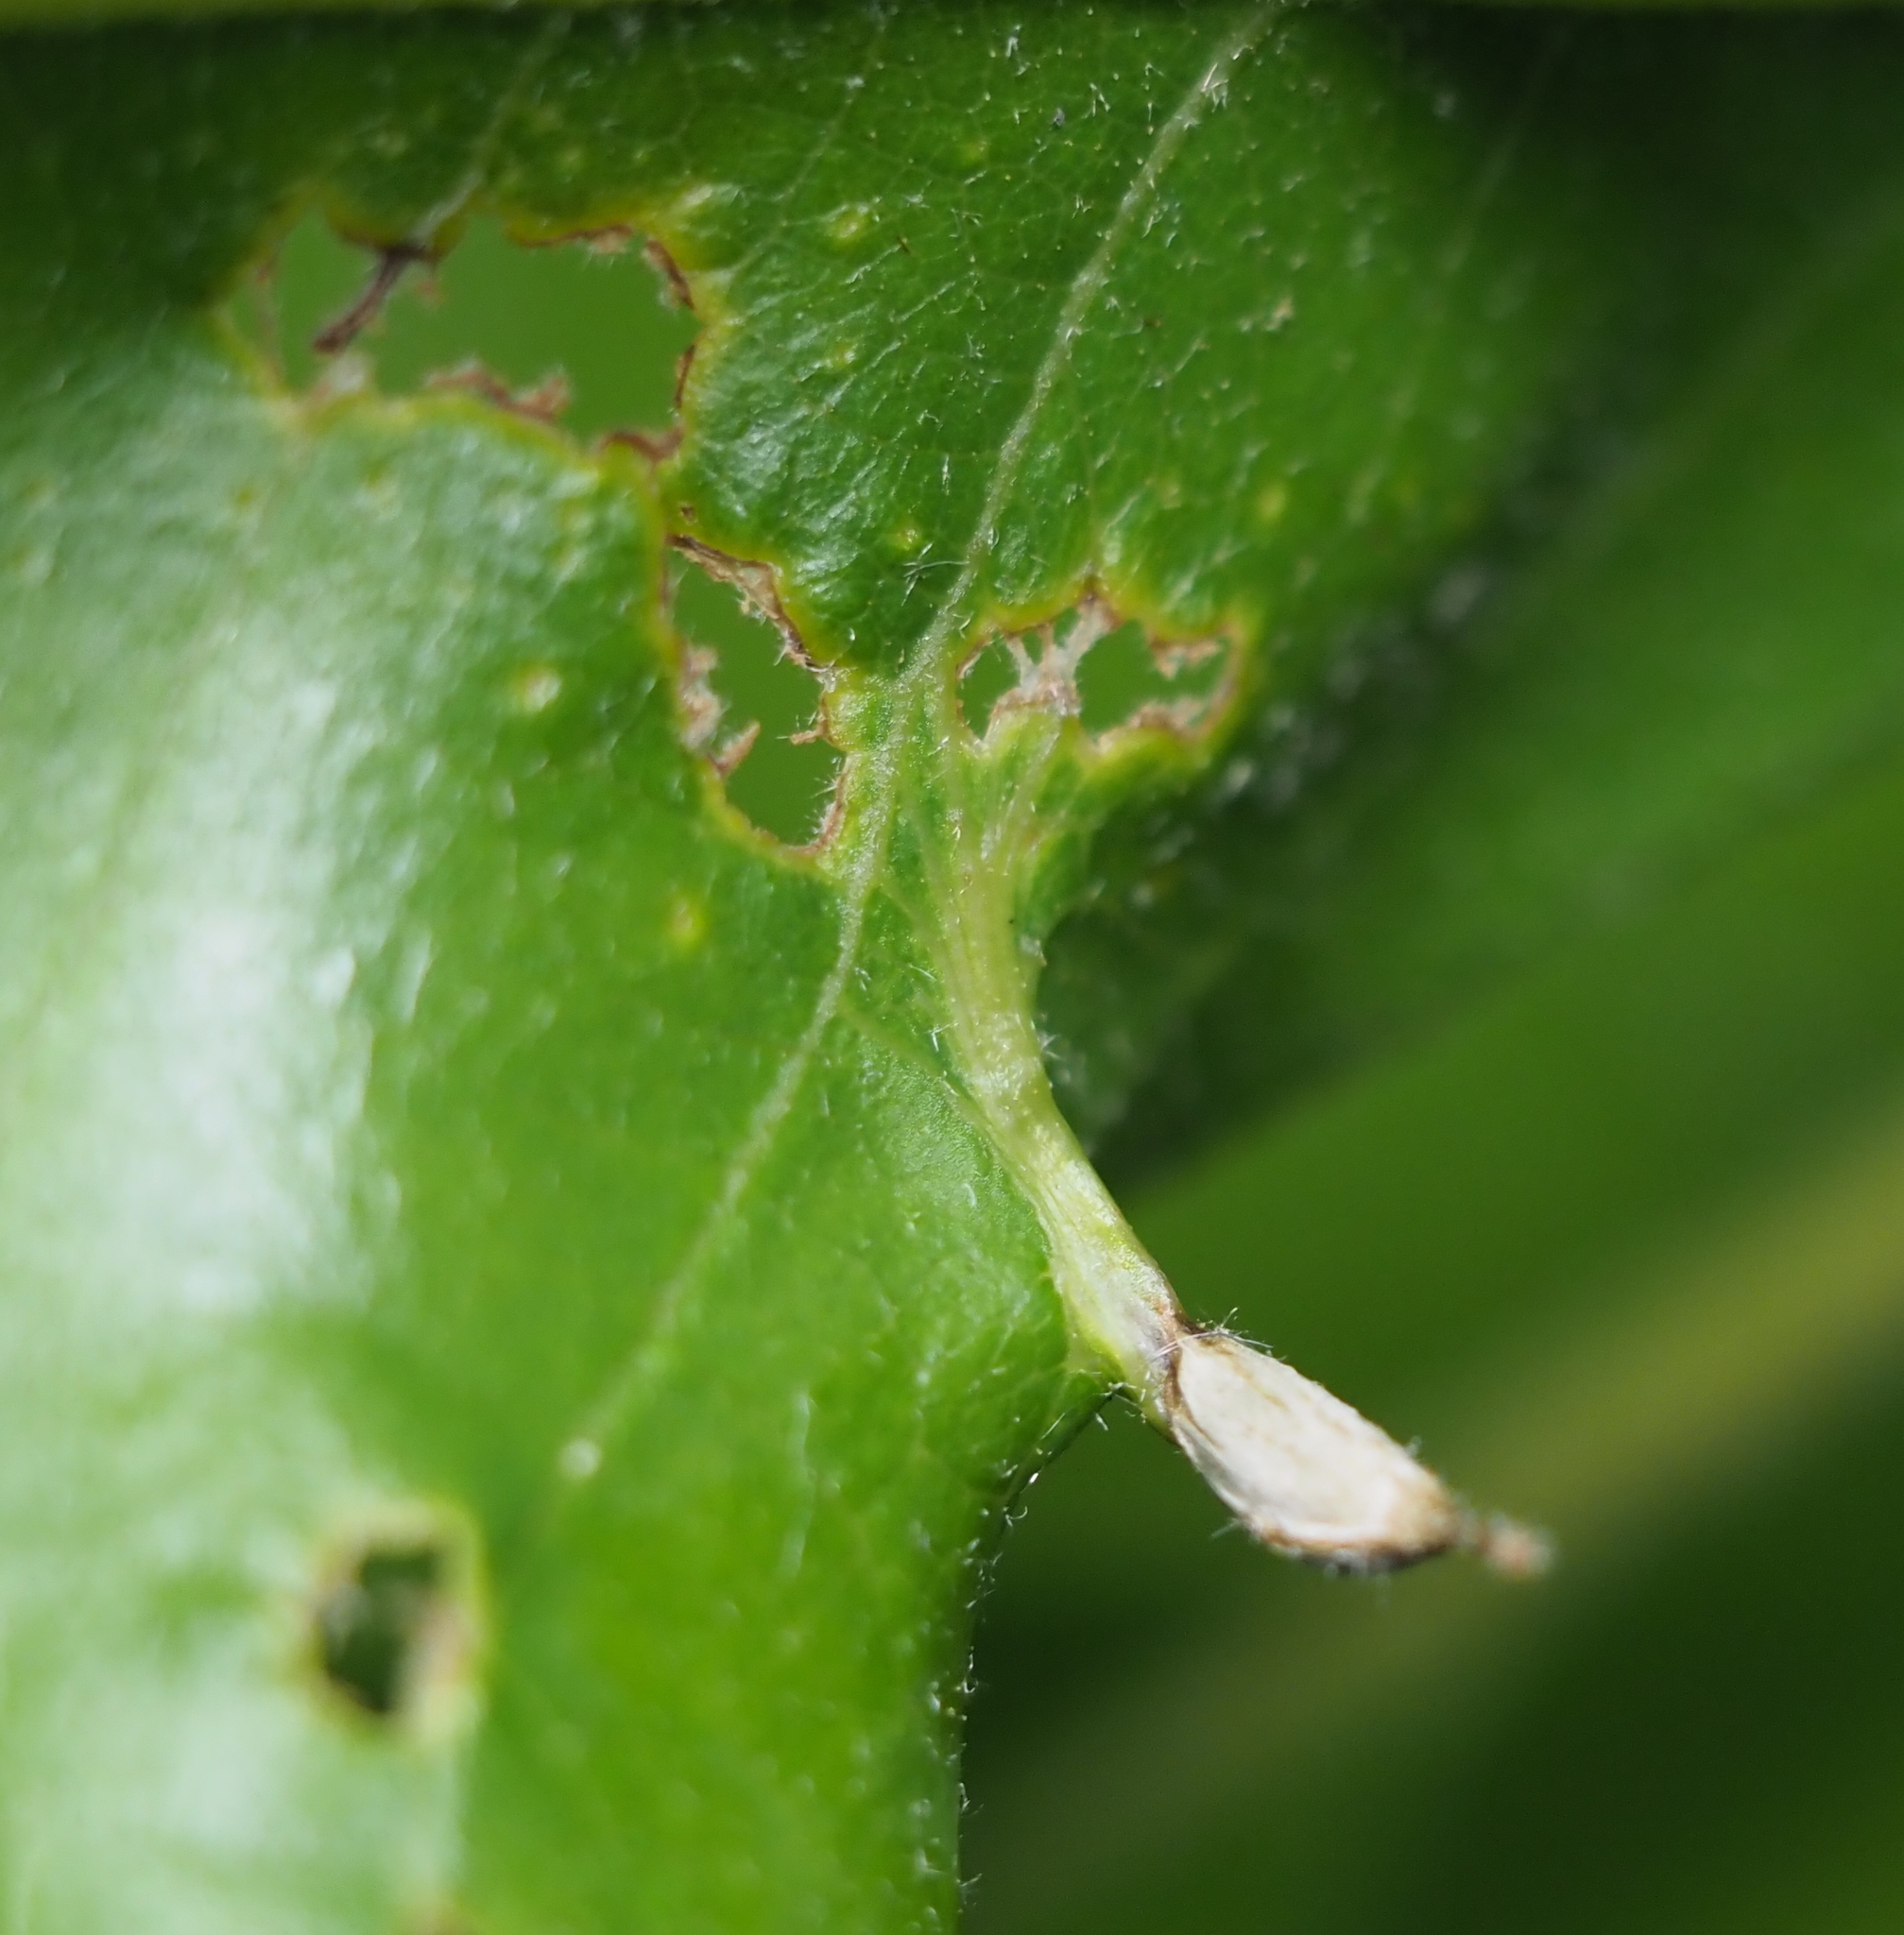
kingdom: Animalia
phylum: Arthropoda
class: Insecta
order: Hymenoptera
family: Cynipidae
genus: Andricus
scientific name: Andricus
